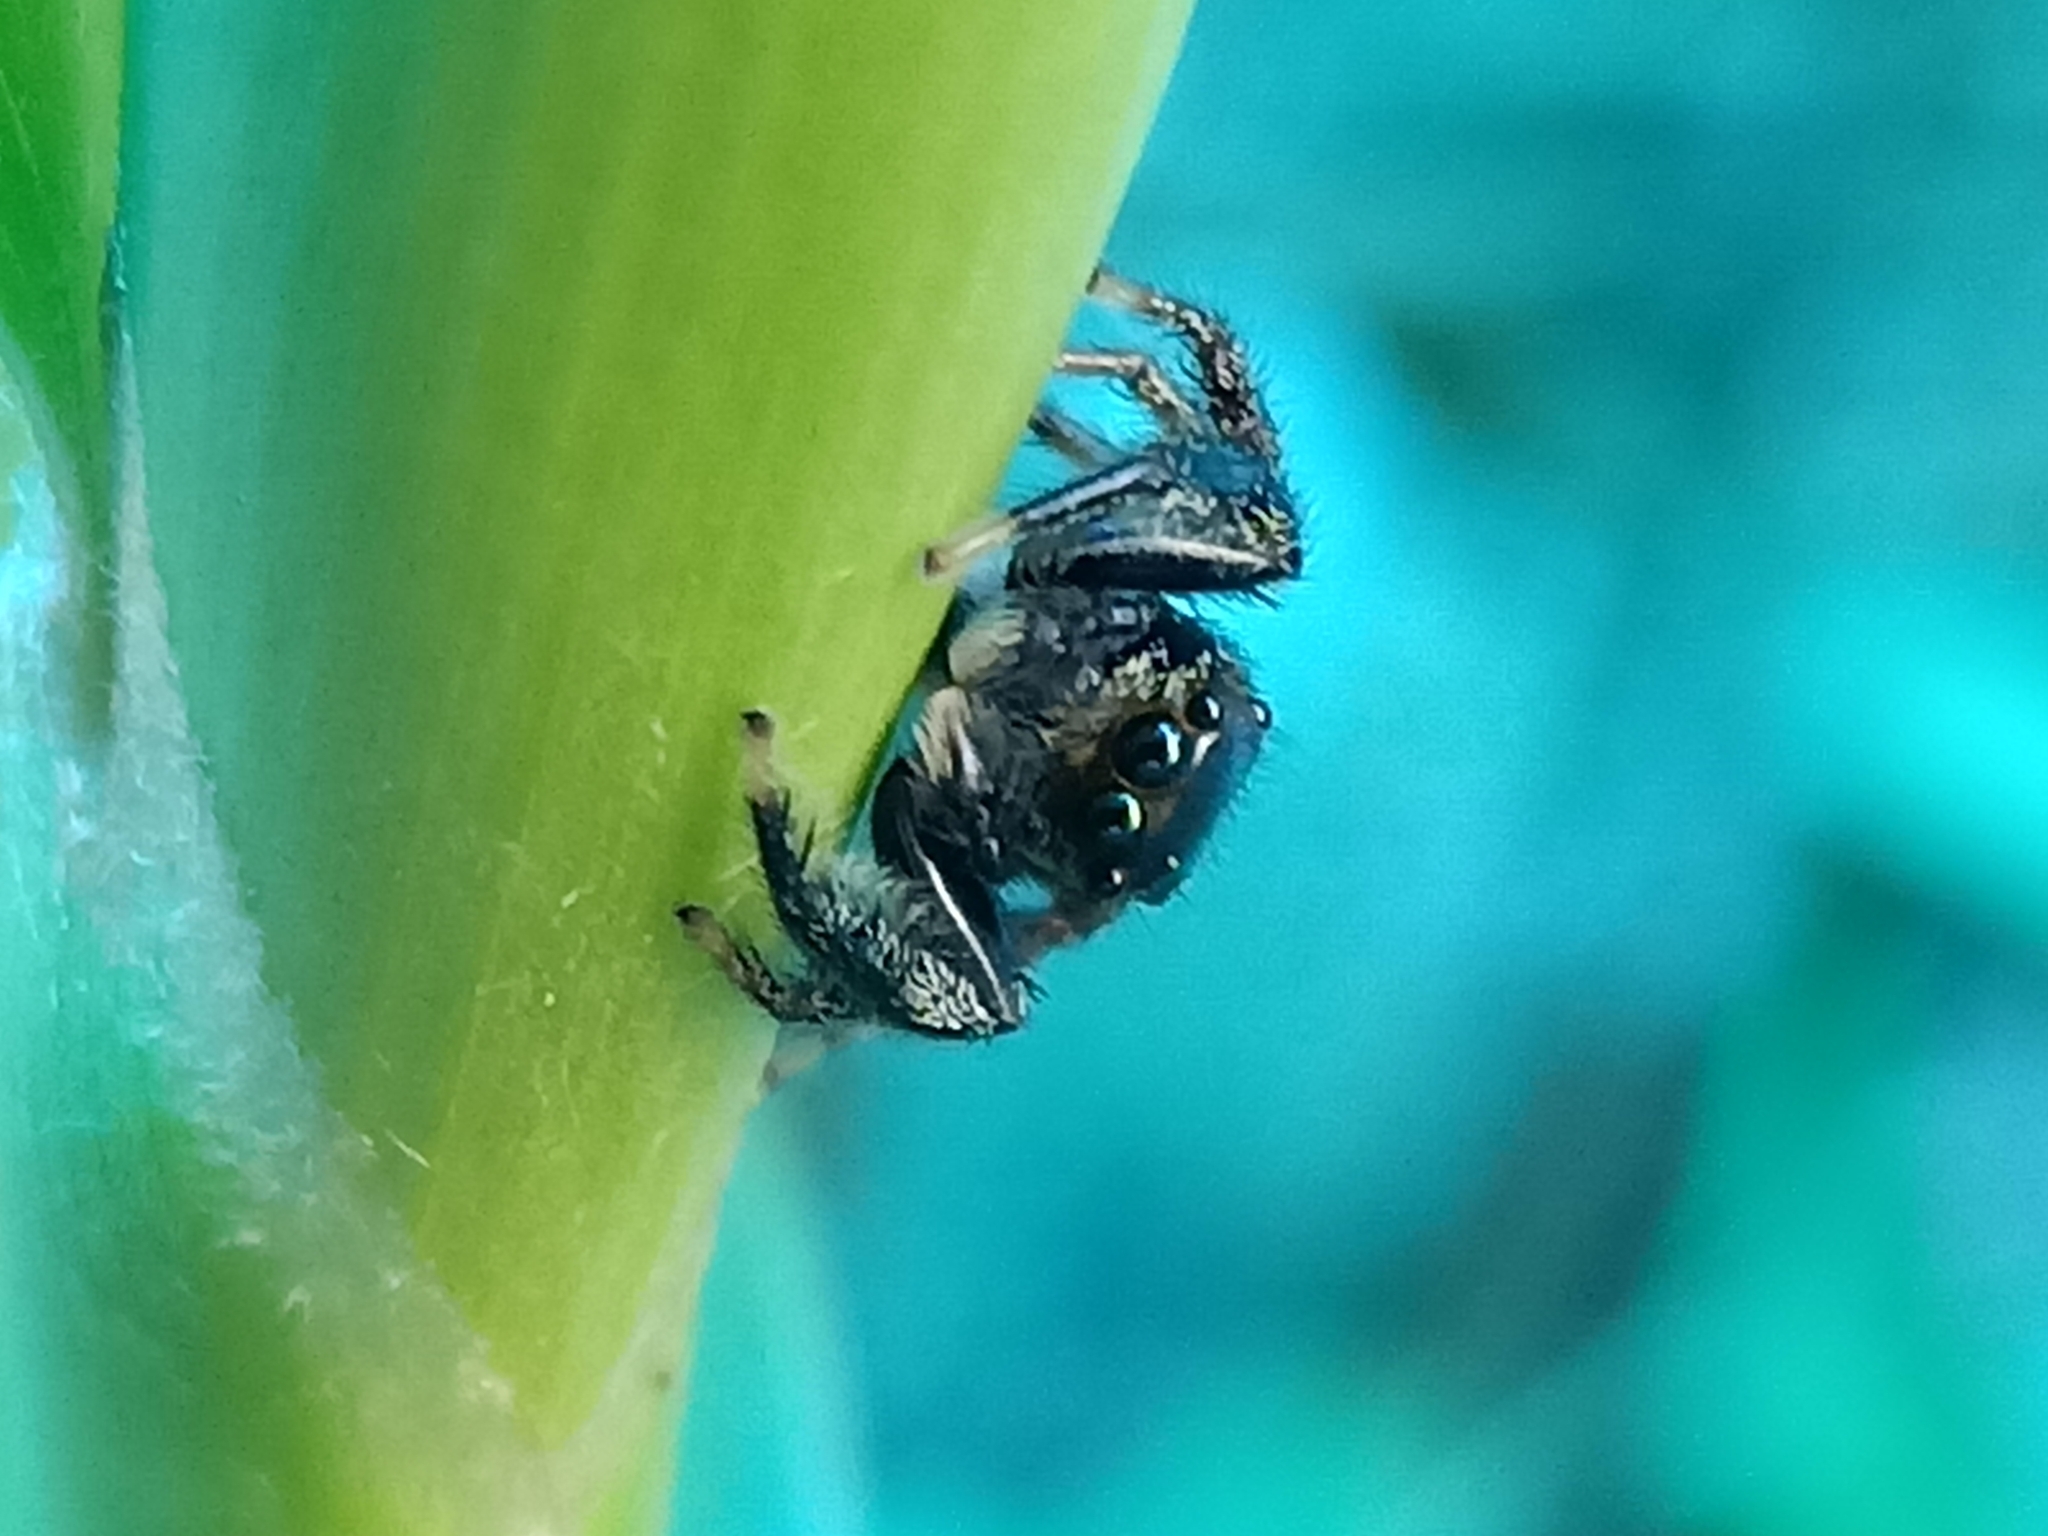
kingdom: Animalia
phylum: Arthropoda
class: Arachnida
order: Araneae
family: Salticidae
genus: Maripanthus
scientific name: Maripanthus gloria
